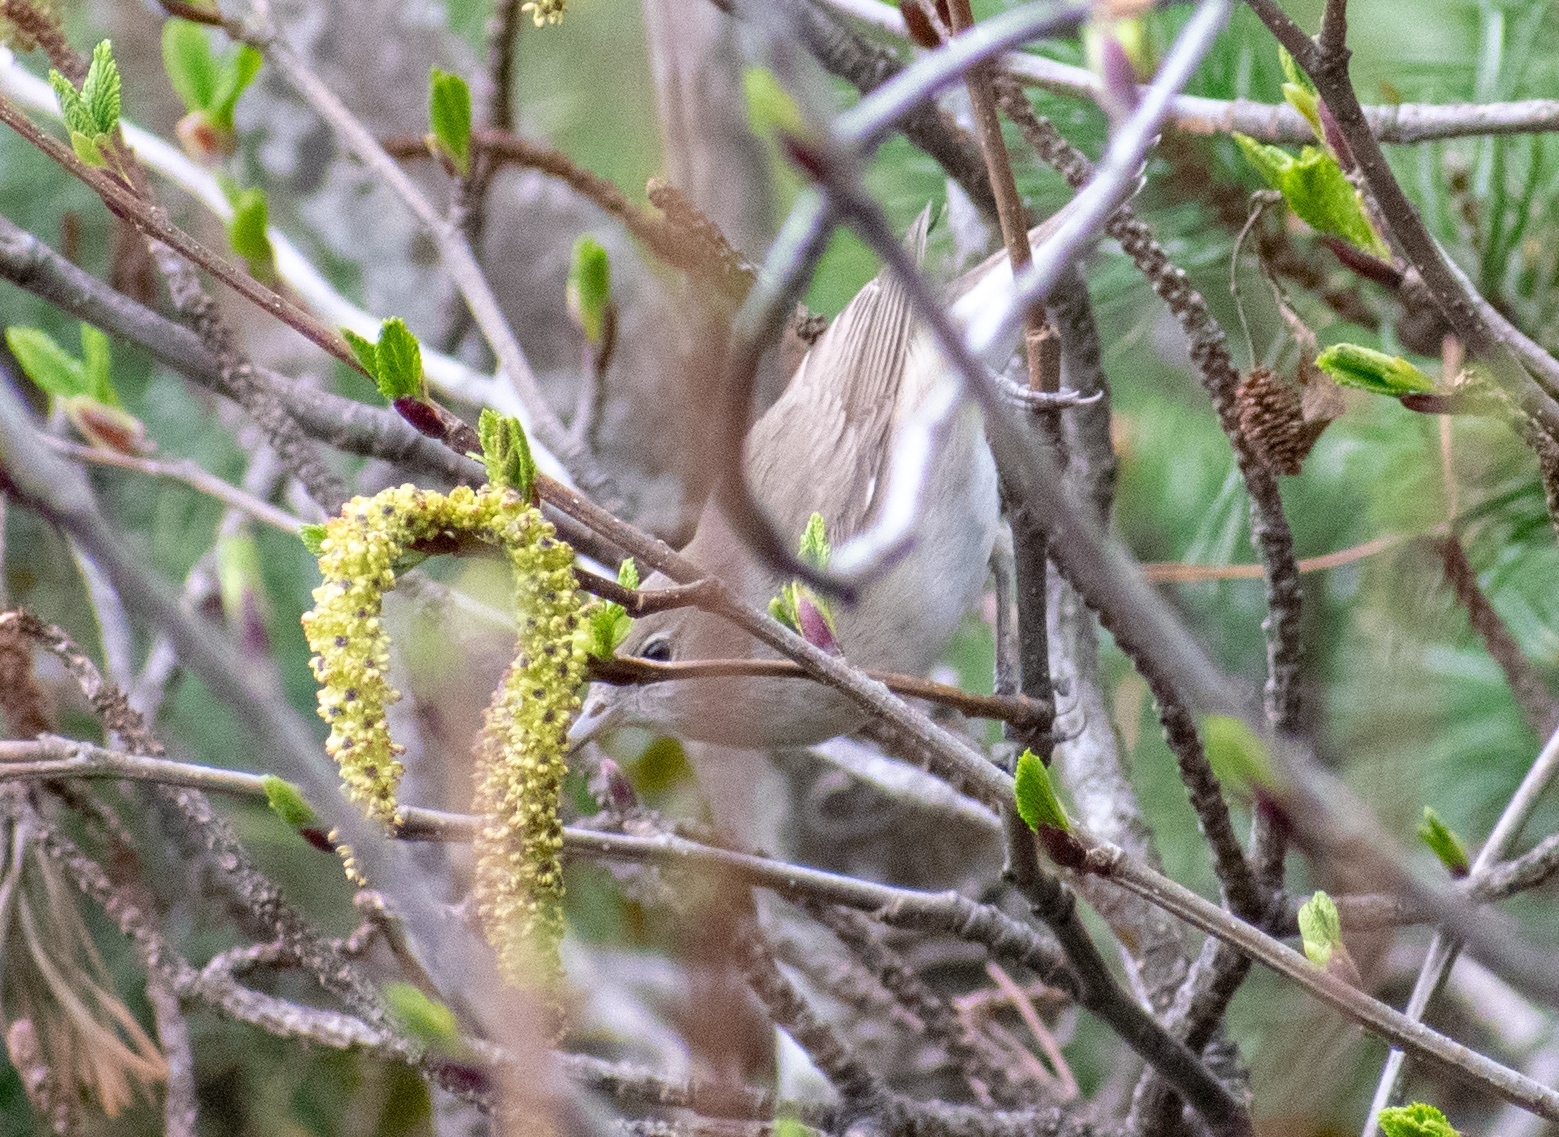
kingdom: Animalia
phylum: Chordata
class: Aves
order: Passeriformes
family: Sylviidae
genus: Sylvia
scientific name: Sylvia borin
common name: Garden warbler
